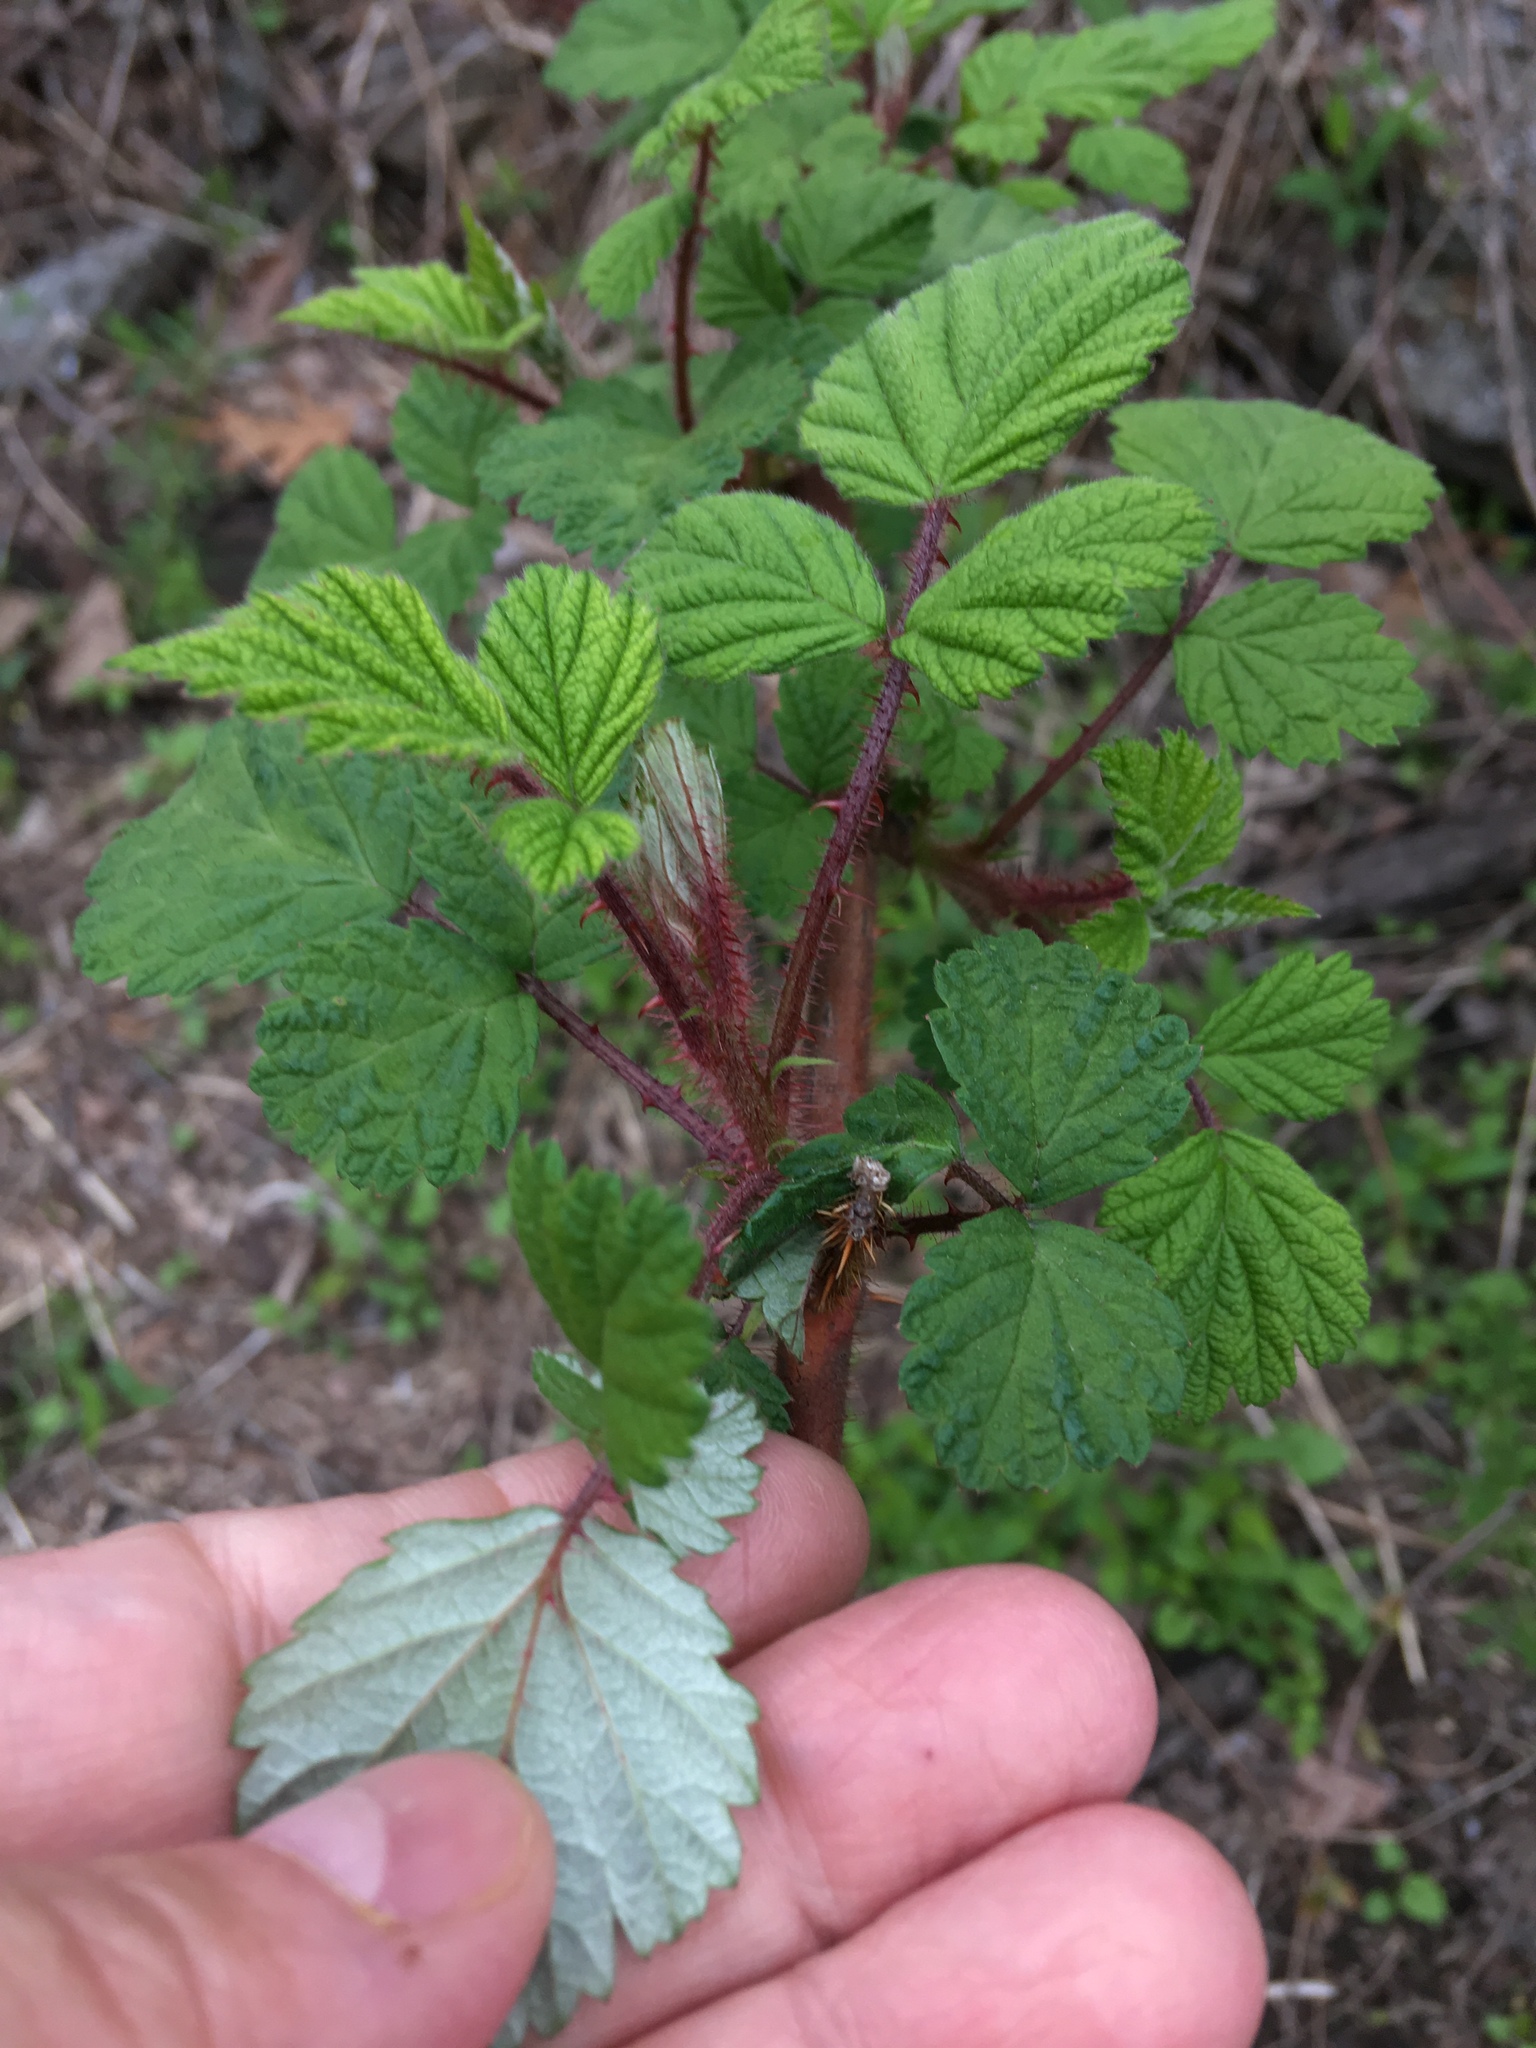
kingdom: Plantae
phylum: Tracheophyta
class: Magnoliopsida
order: Rosales
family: Rosaceae
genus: Rubus
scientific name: Rubus phoenicolasius
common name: Japanese wineberry
